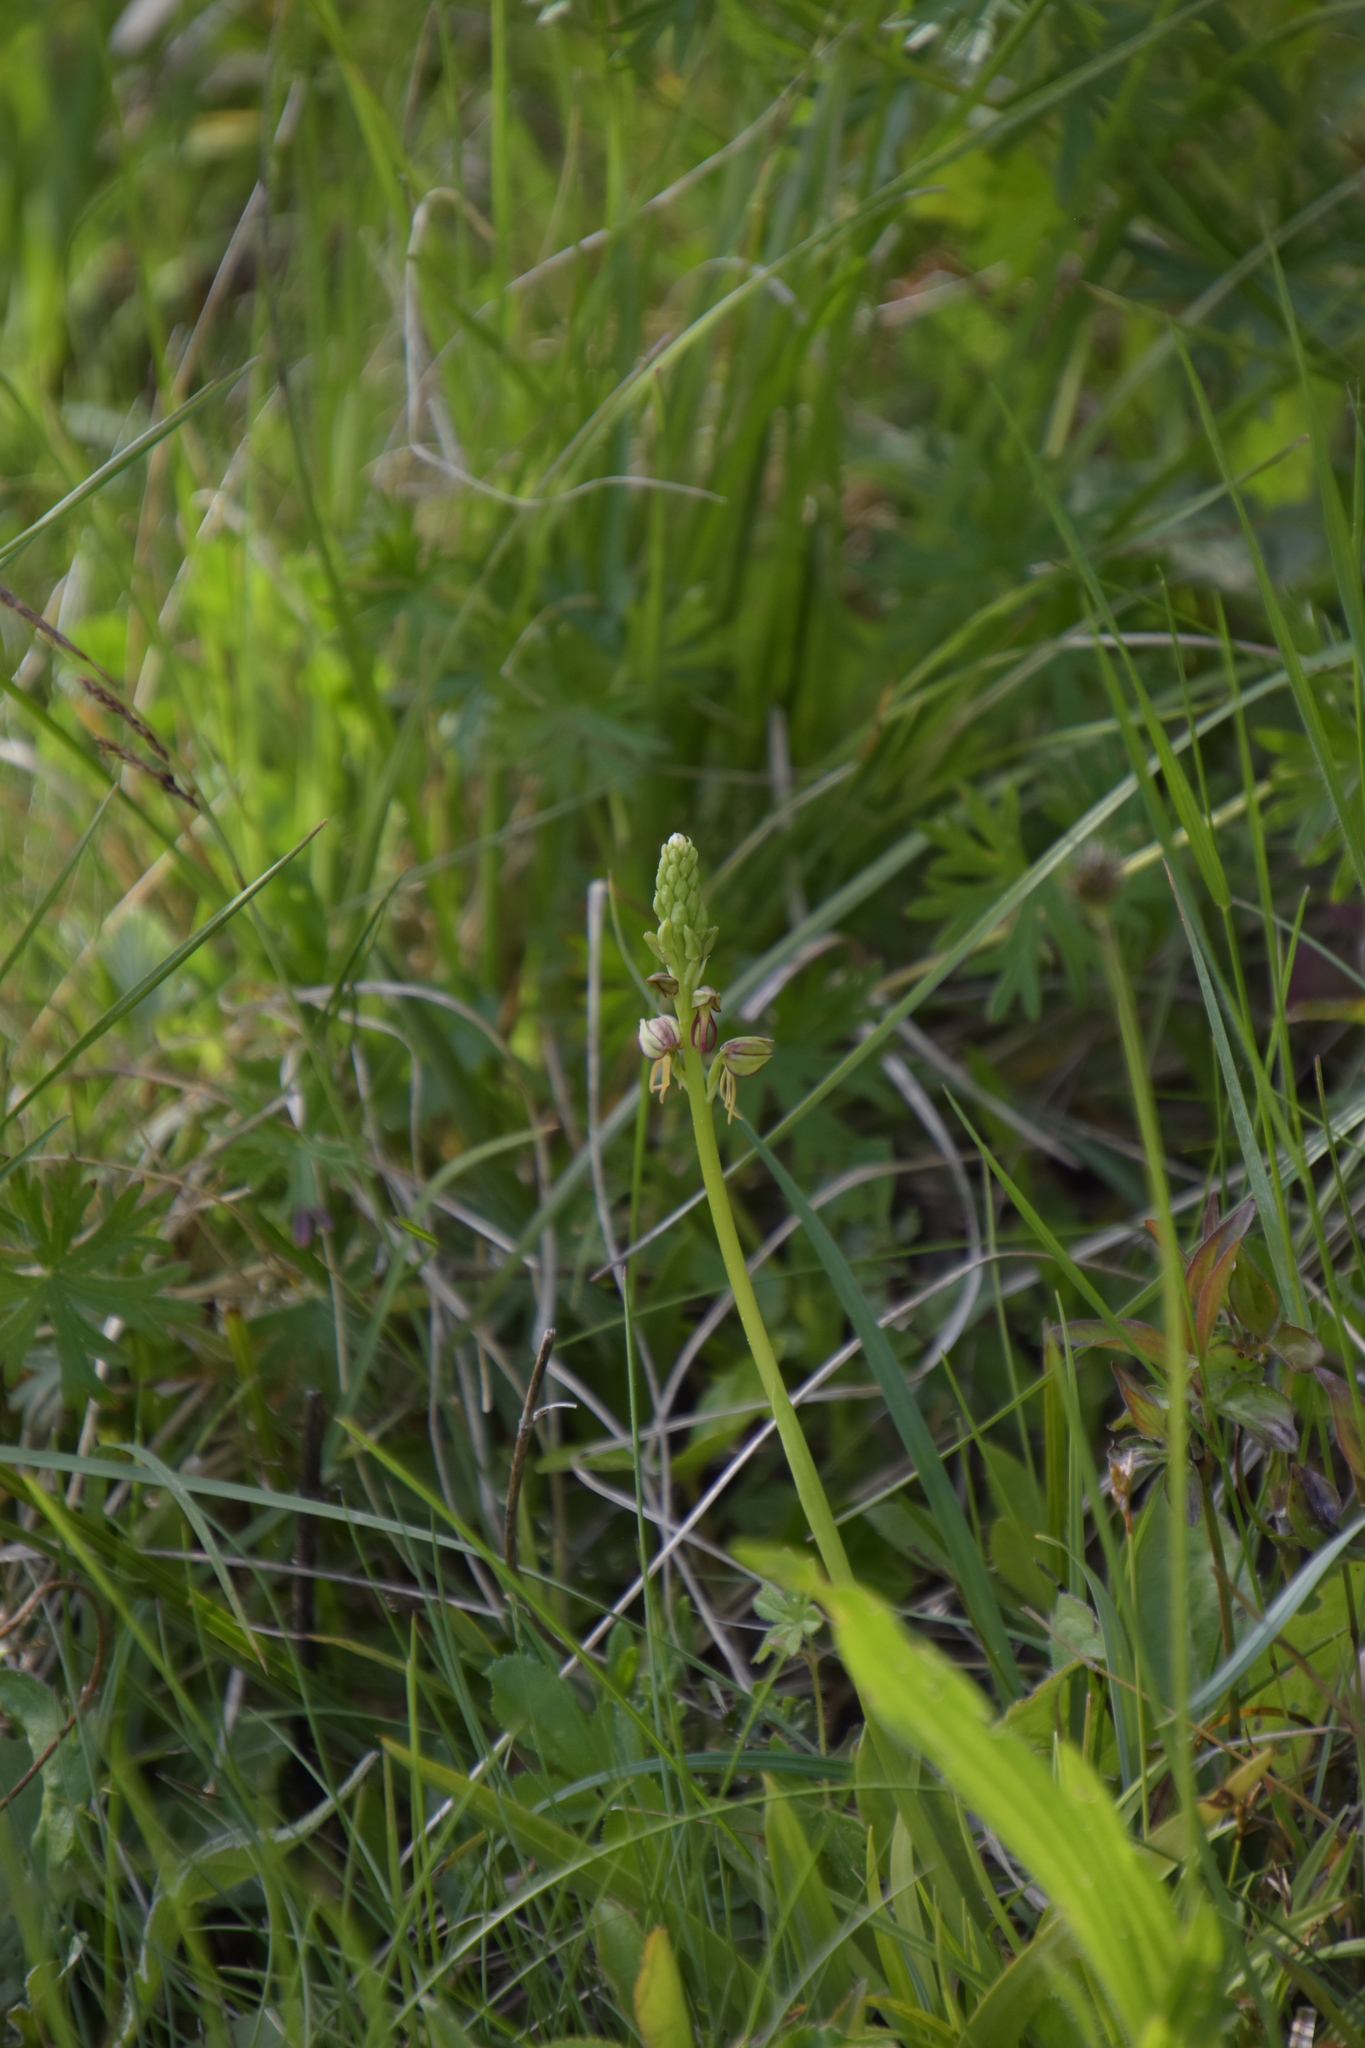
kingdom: Plantae
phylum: Tracheophyta
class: Liliopsida
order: Asparagales
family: Orchidaceae
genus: Orchis
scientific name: Orchis anthropophora
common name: Man orchid
